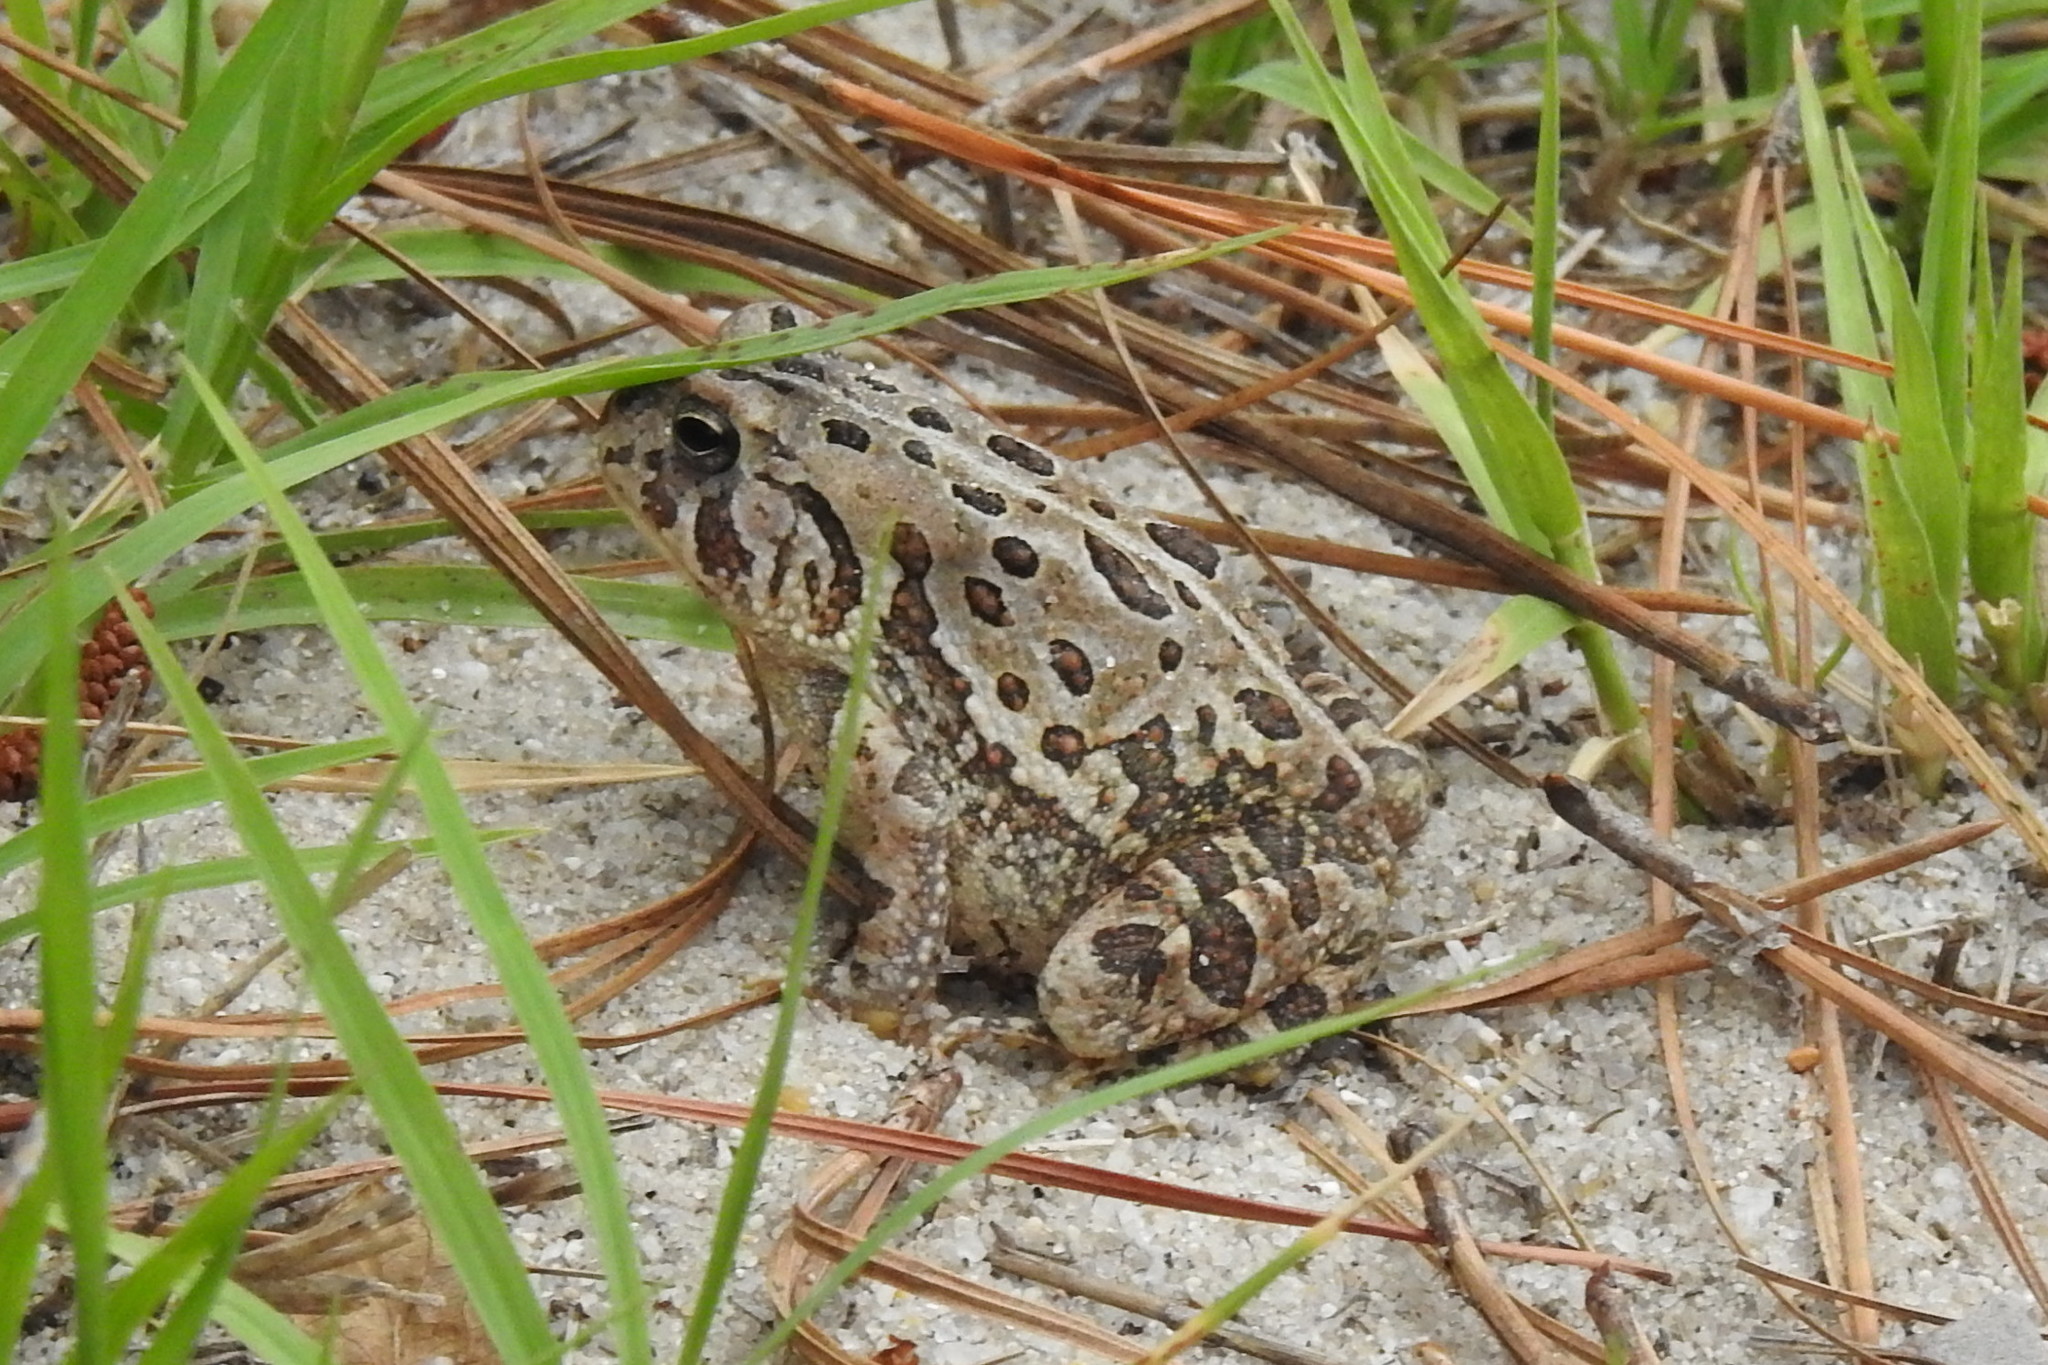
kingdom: Animalia
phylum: Chordata
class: Amphibia
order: Anura
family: Bufonidae
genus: Anaxyrus
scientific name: Anaxyrus fowleri
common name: Fowler's toad
